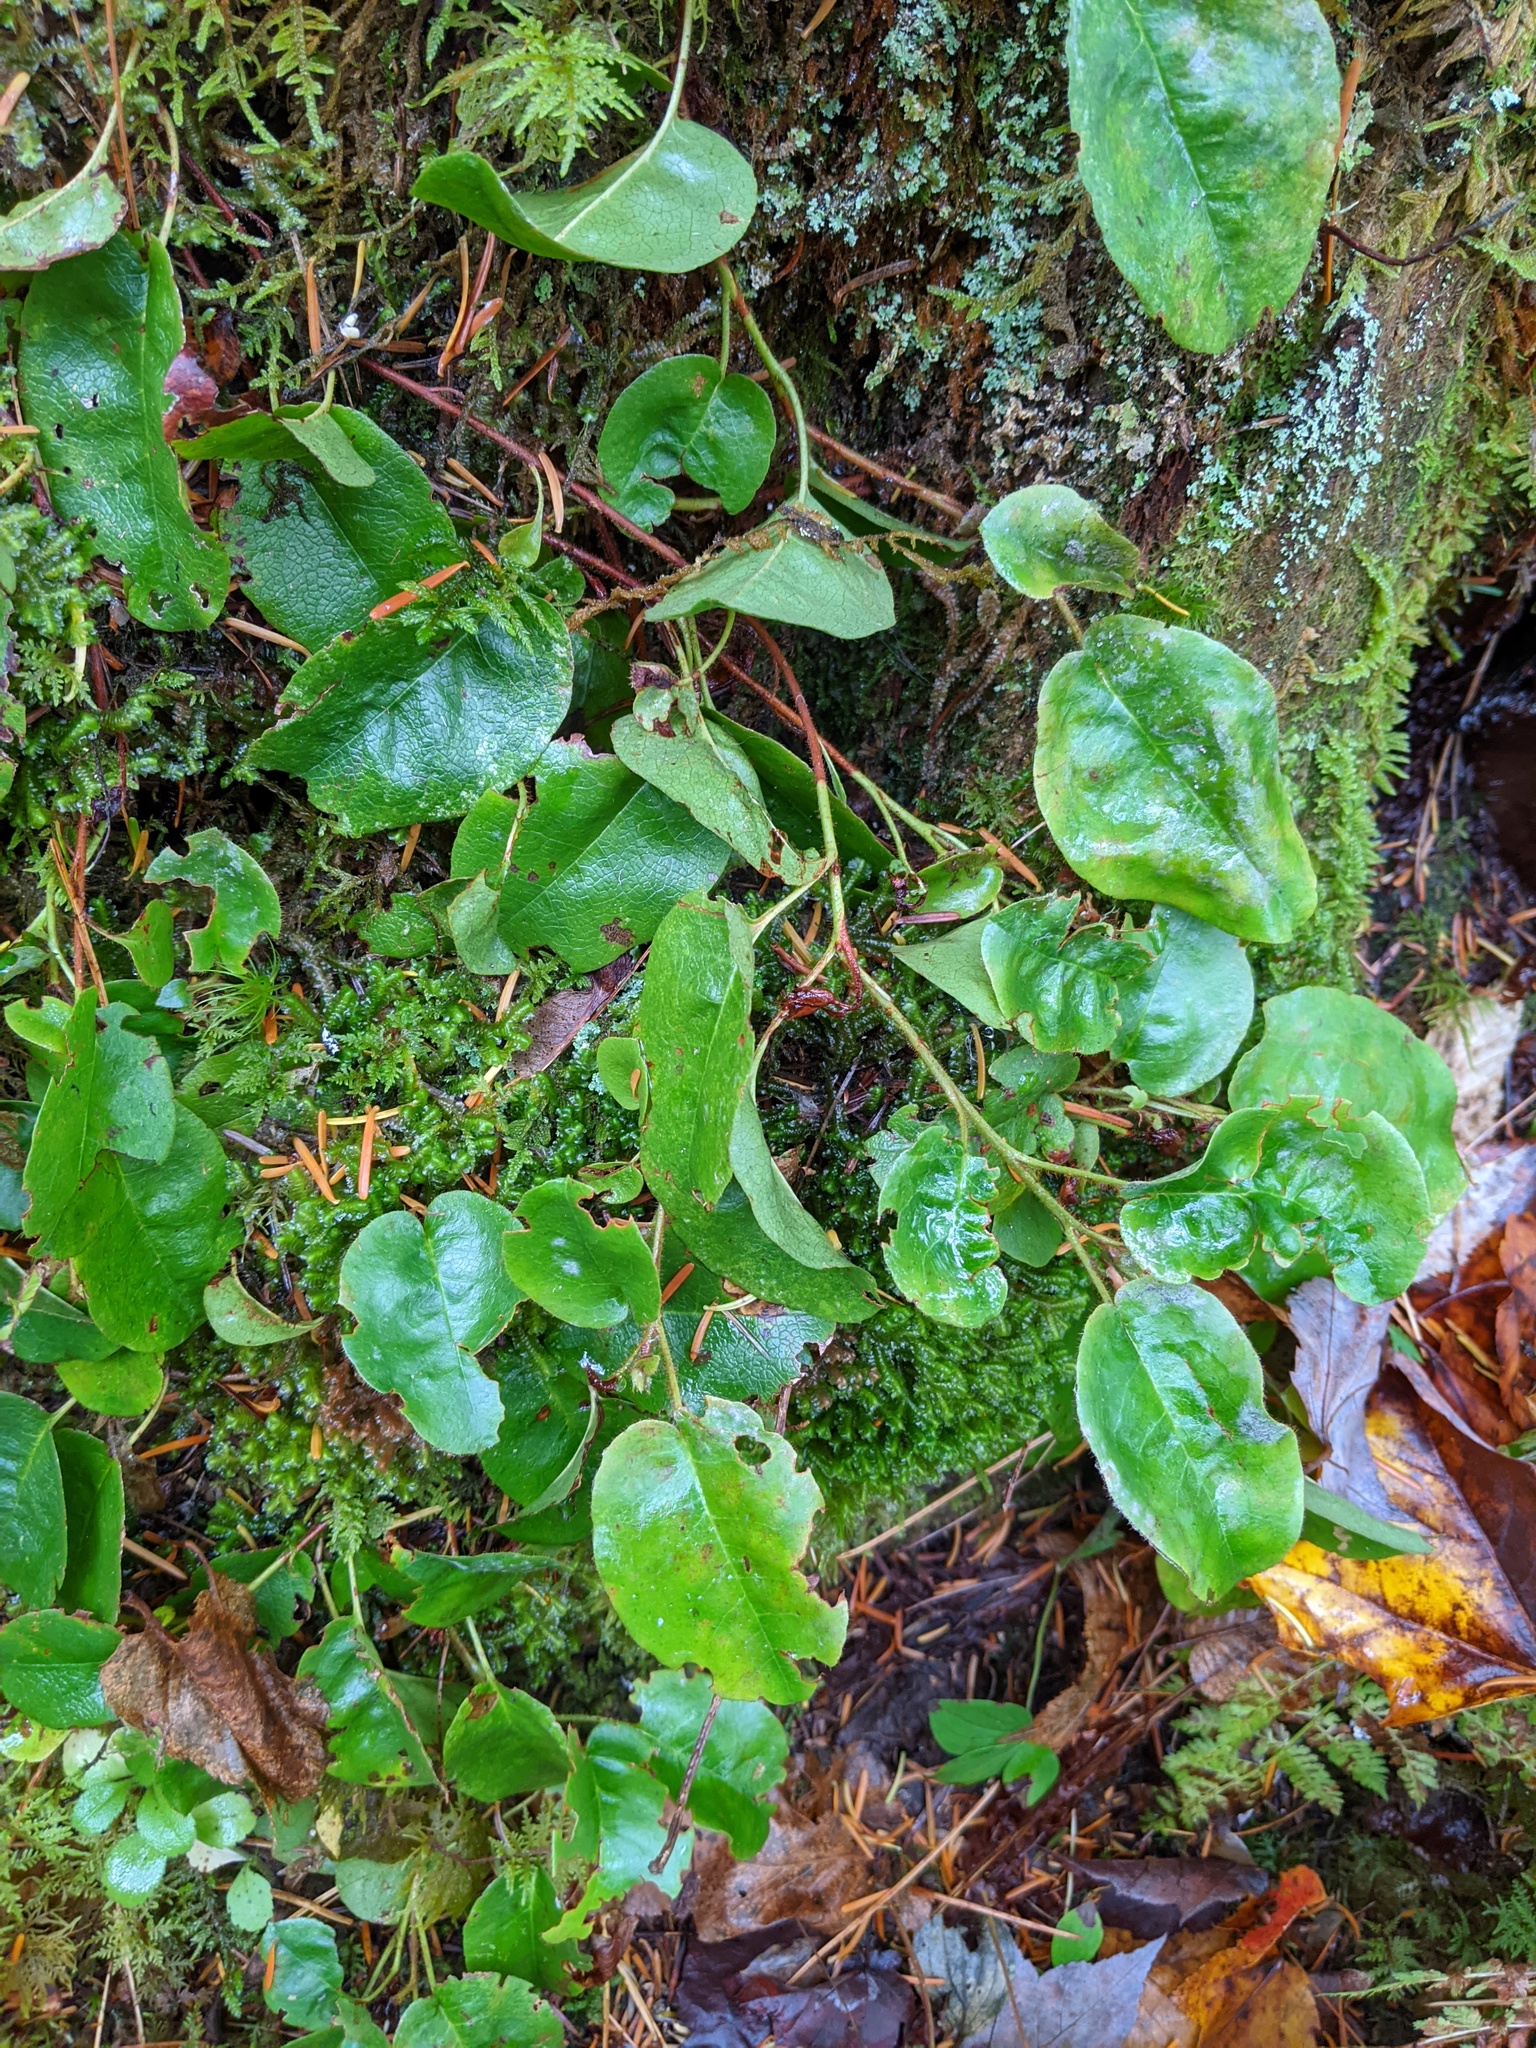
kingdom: Plantae
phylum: Tracheophyta
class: Magnoliopsida
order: Ericales
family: Ericaceae
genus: Epigaea
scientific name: Epigaea repens
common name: Gravelroot
